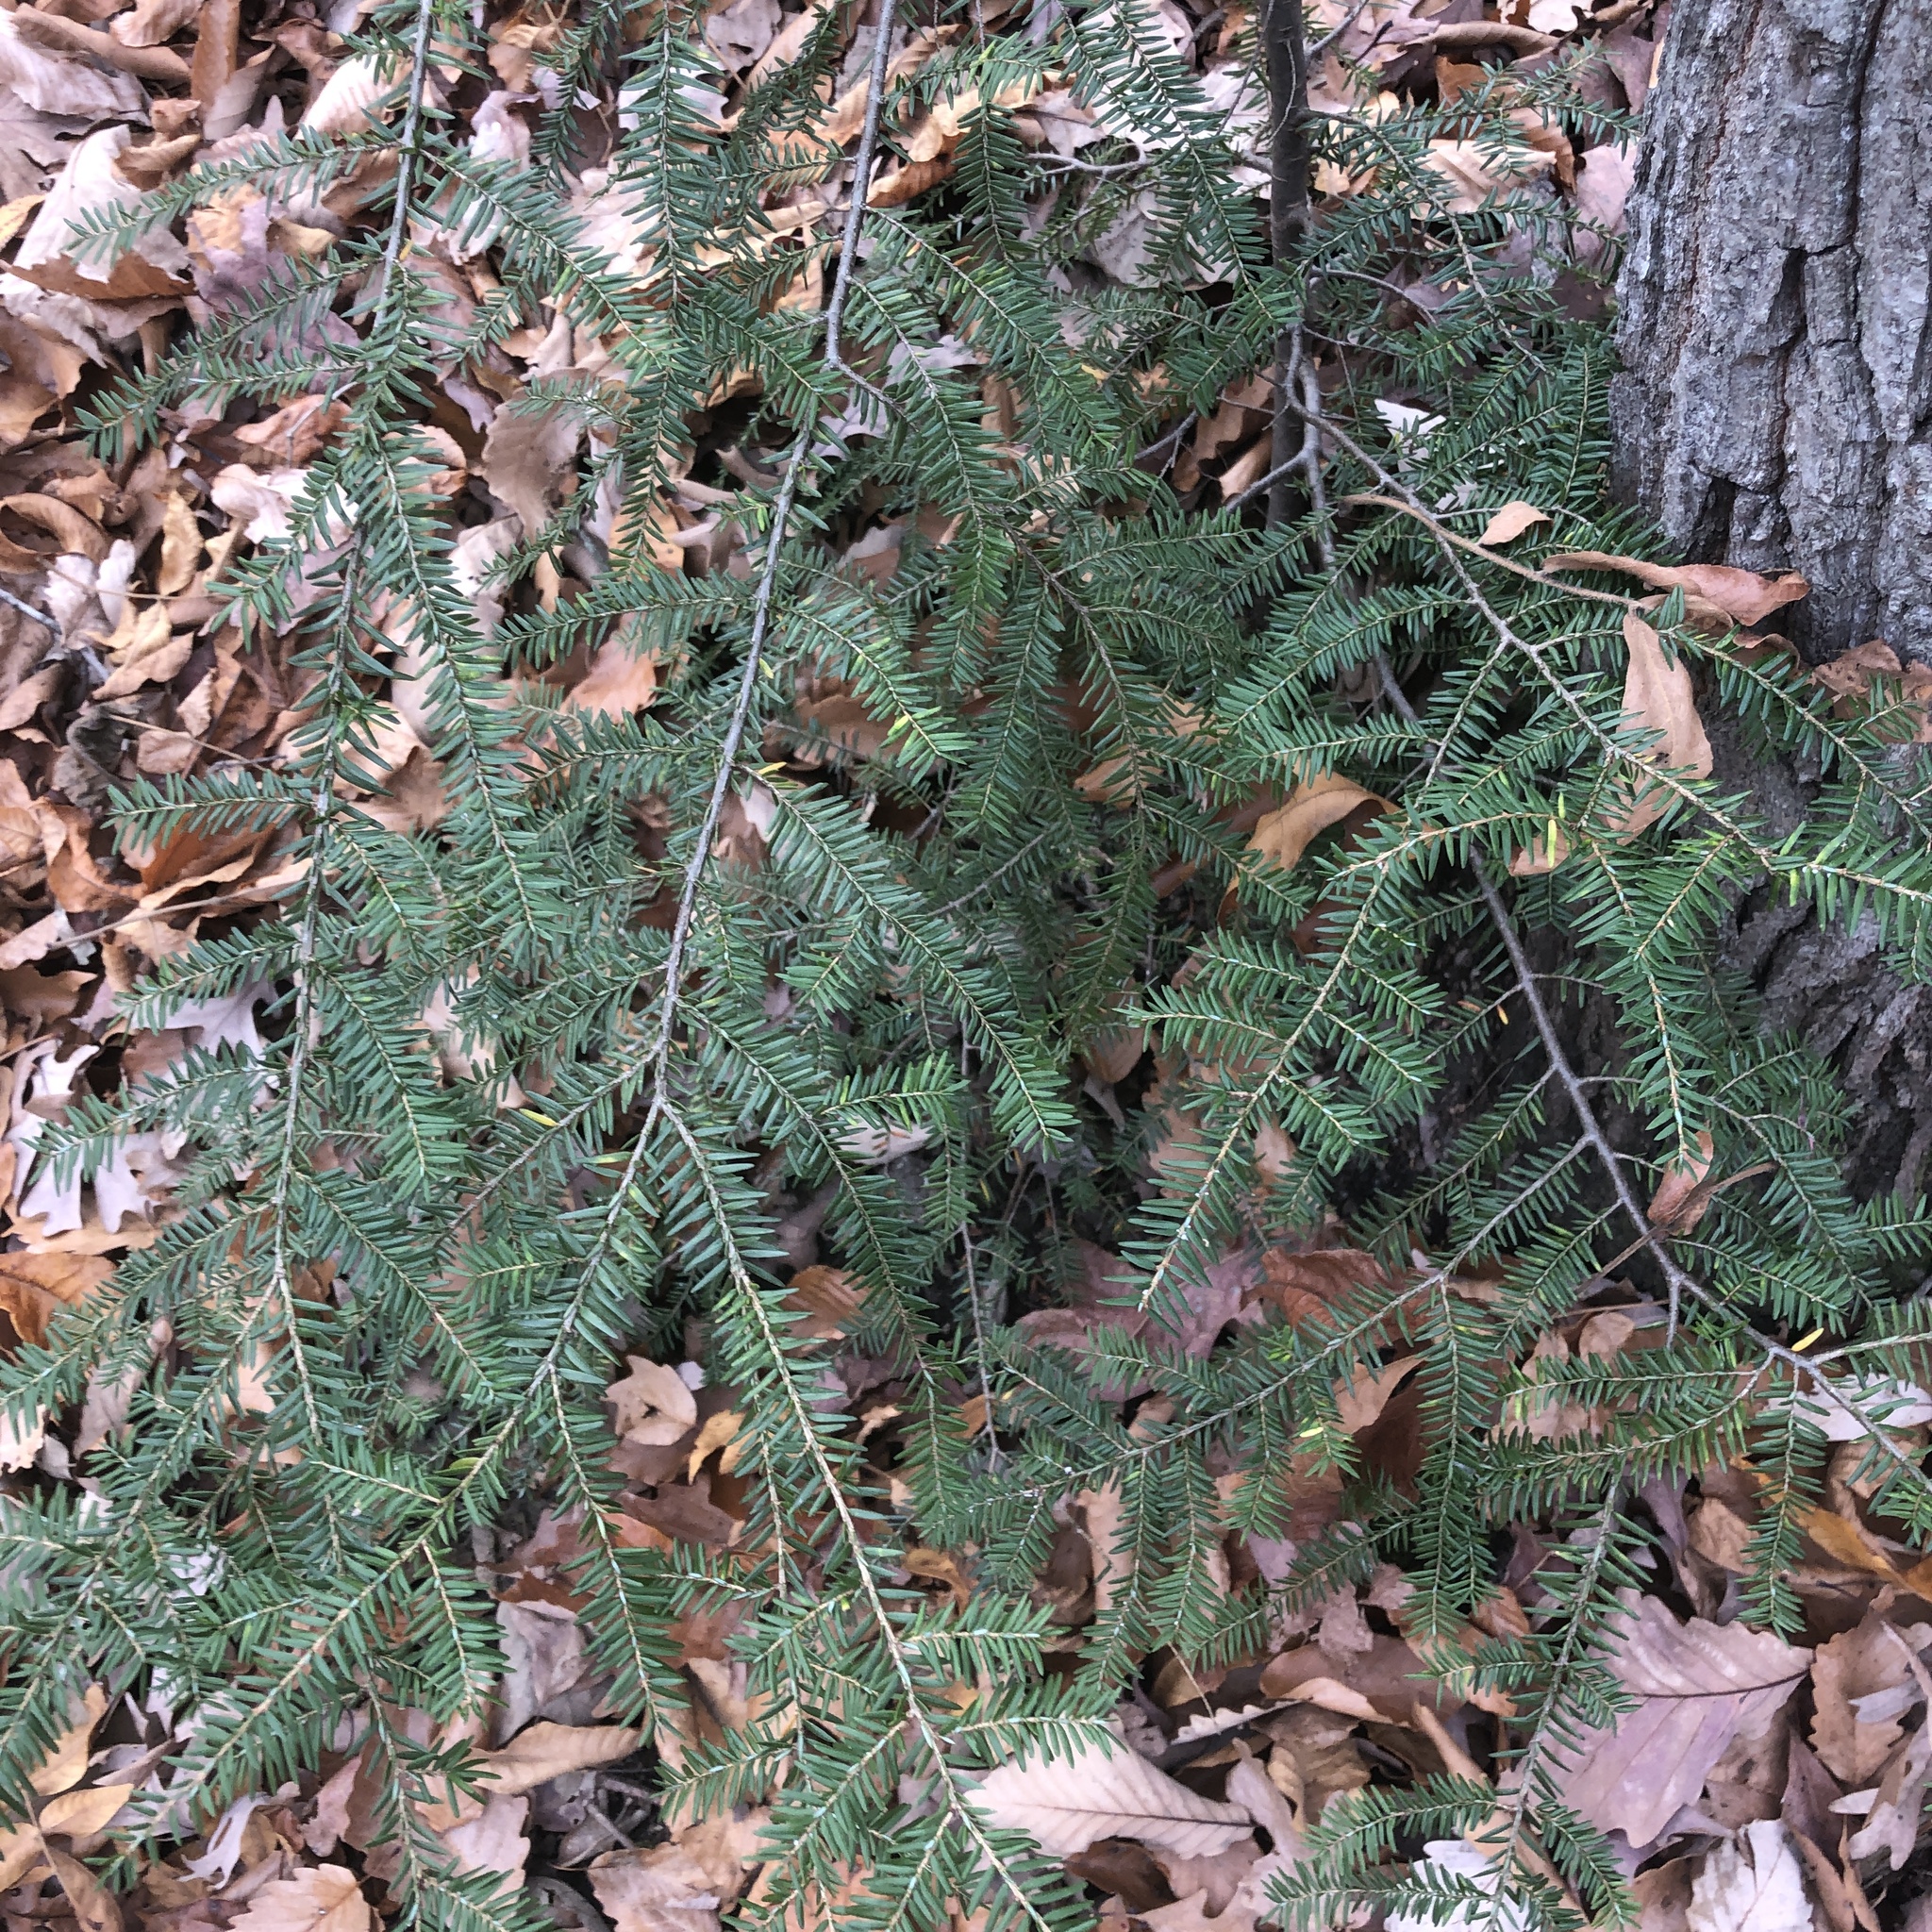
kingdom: Plantae
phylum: Tracheophyta
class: Pinopsida
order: Pinales
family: Pinaceae
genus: Tsuga
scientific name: Tsuga canadensis
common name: Eastern hemlock
